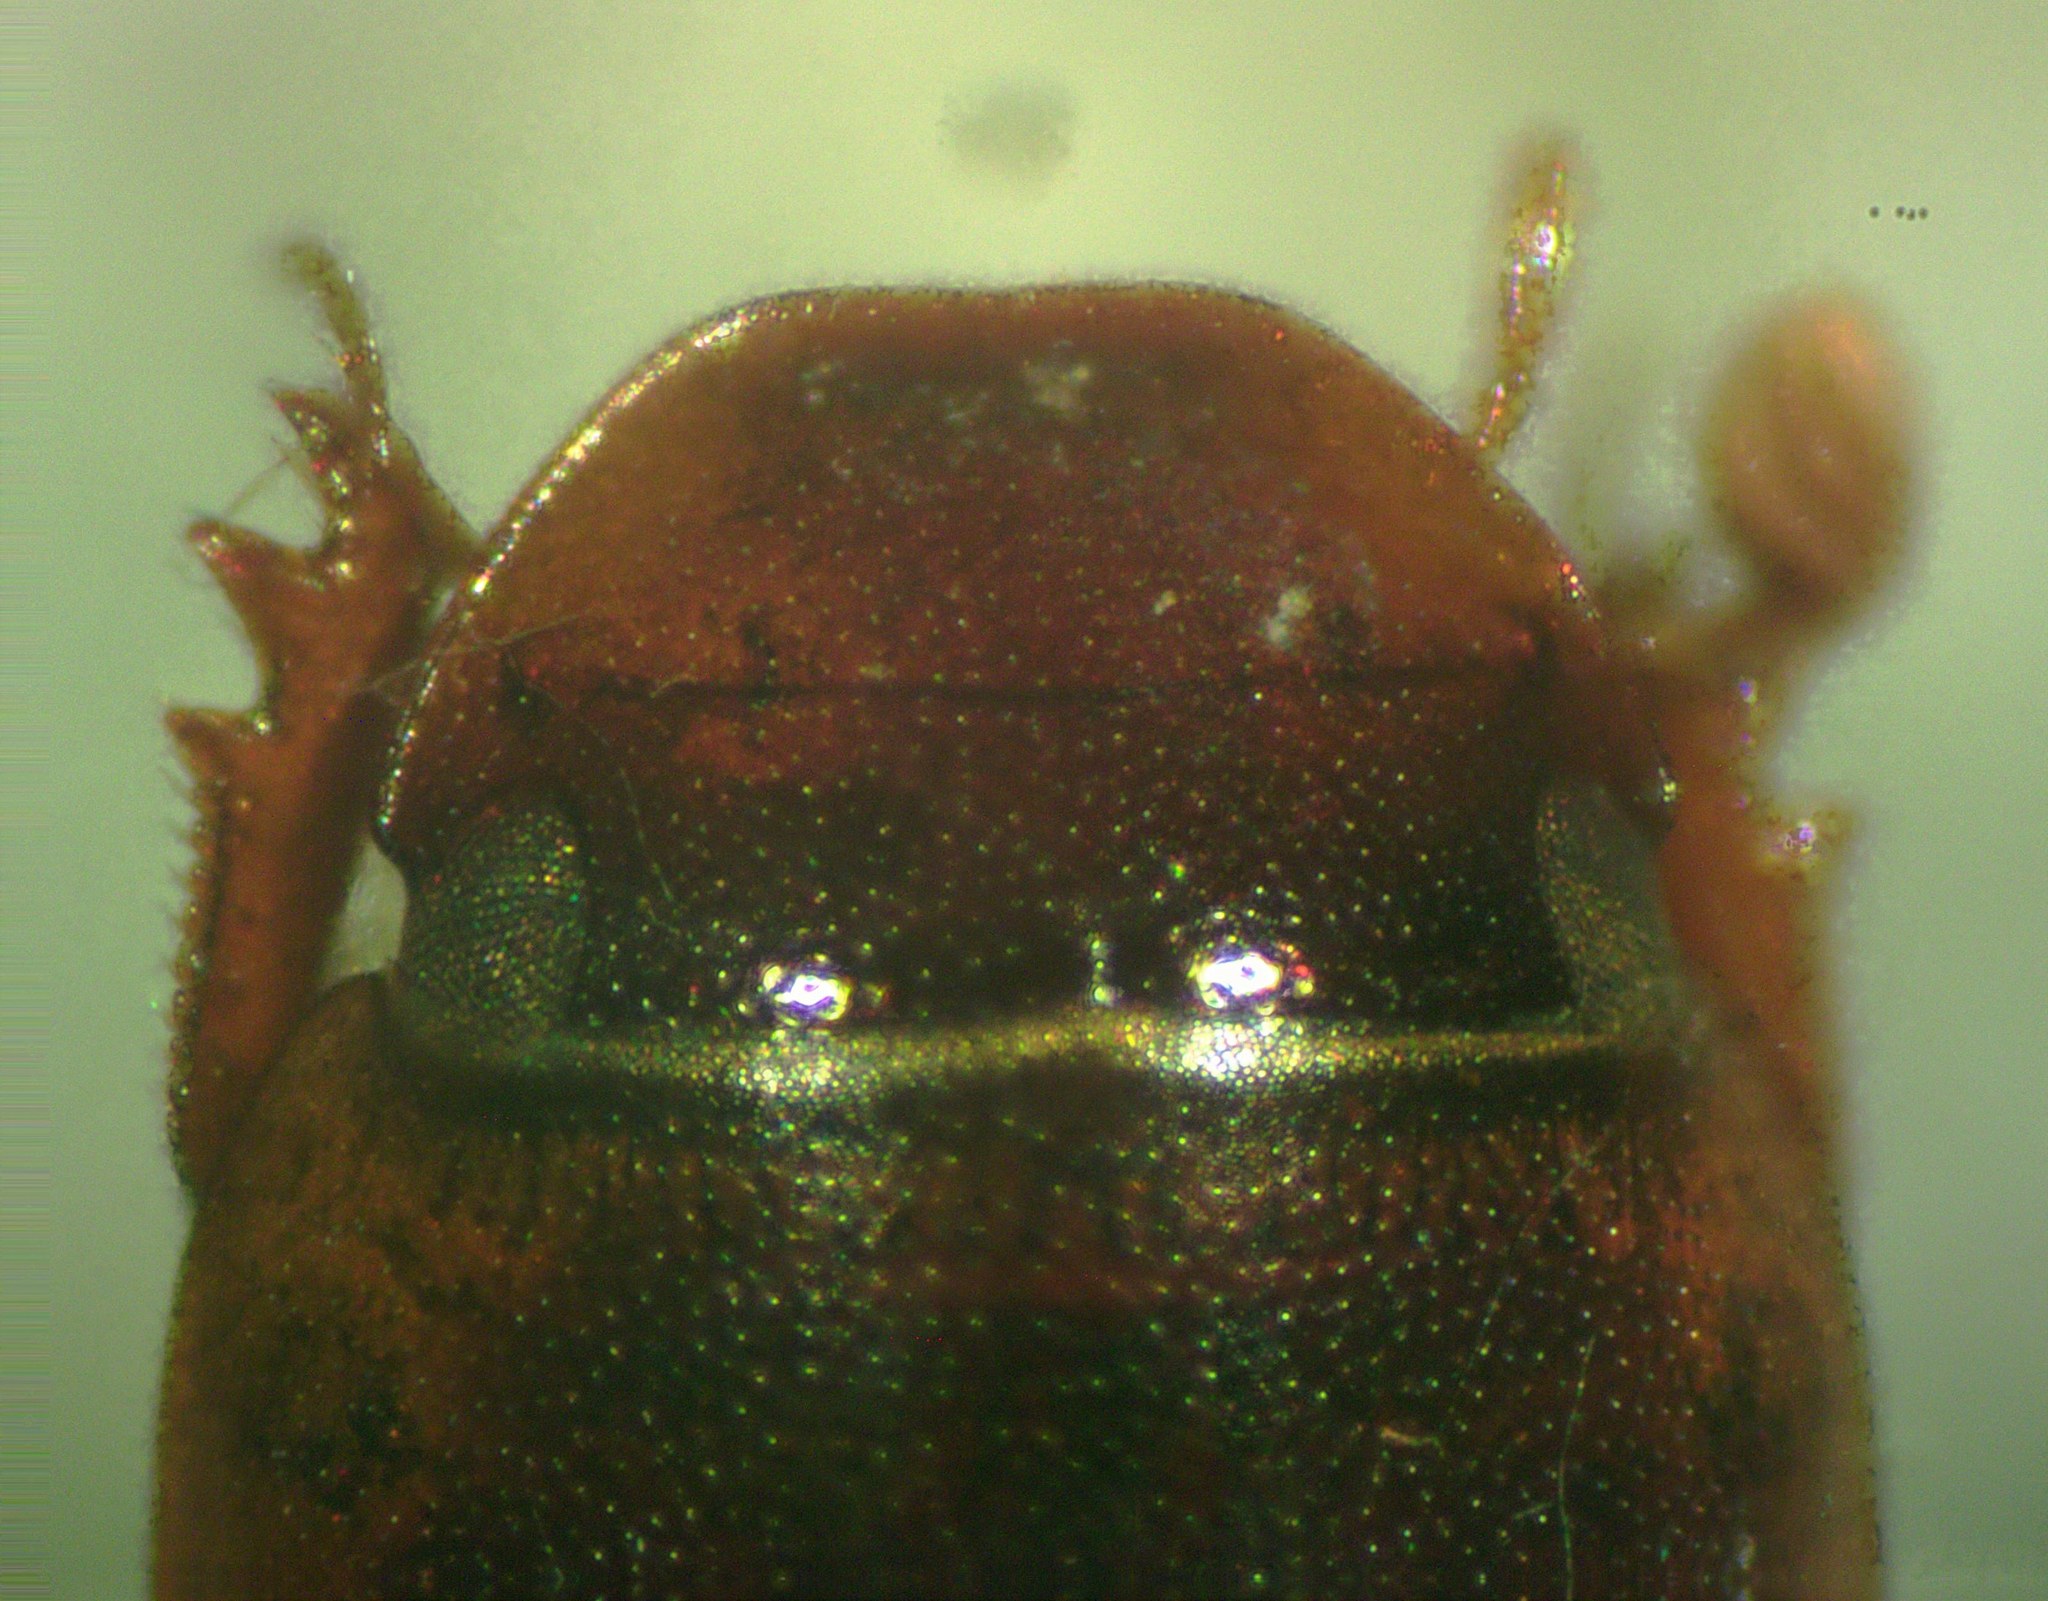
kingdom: Animalia
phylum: Arthropoda
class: Insecta
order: Coleoptera
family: Scarabaeidae
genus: Gonaphodiellus
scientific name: Gonaphodiellus opisthius
